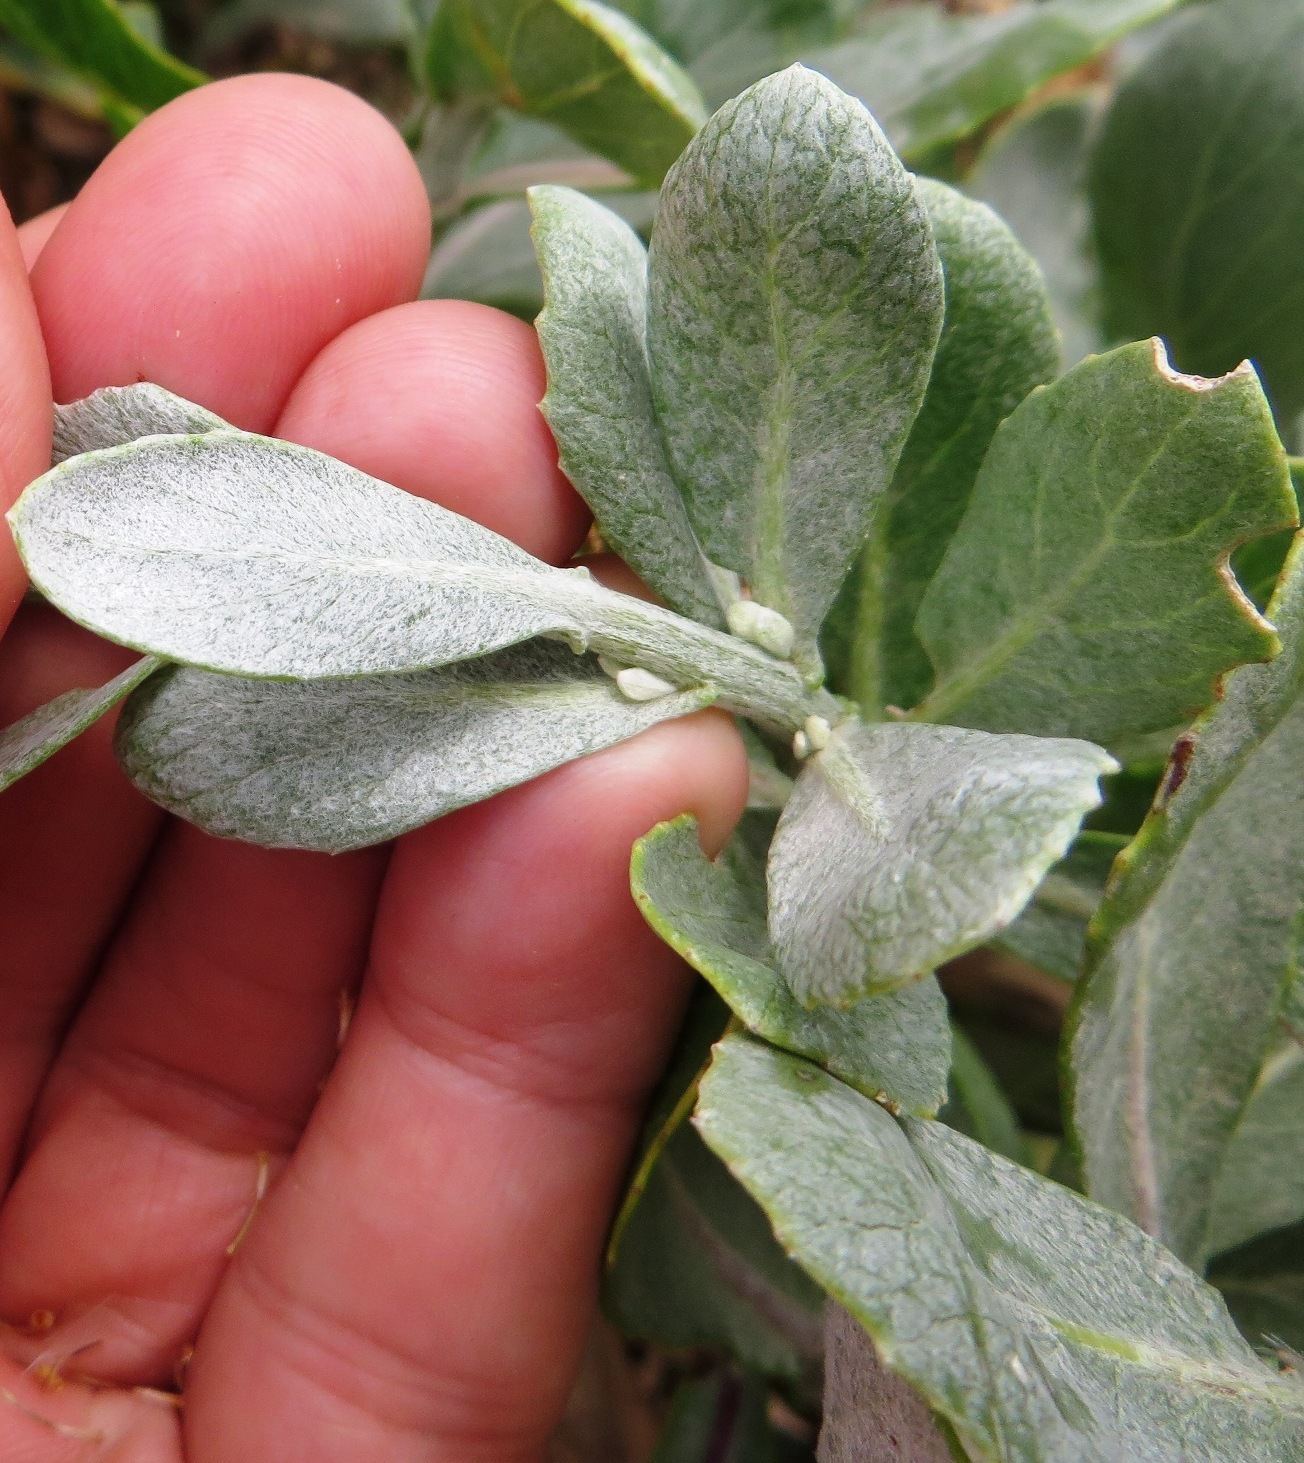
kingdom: Plantae
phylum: Tracheophyta
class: Magnoliopsida
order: Asterales
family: Asteraceae
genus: Senecio
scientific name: Senecio halimifolius
